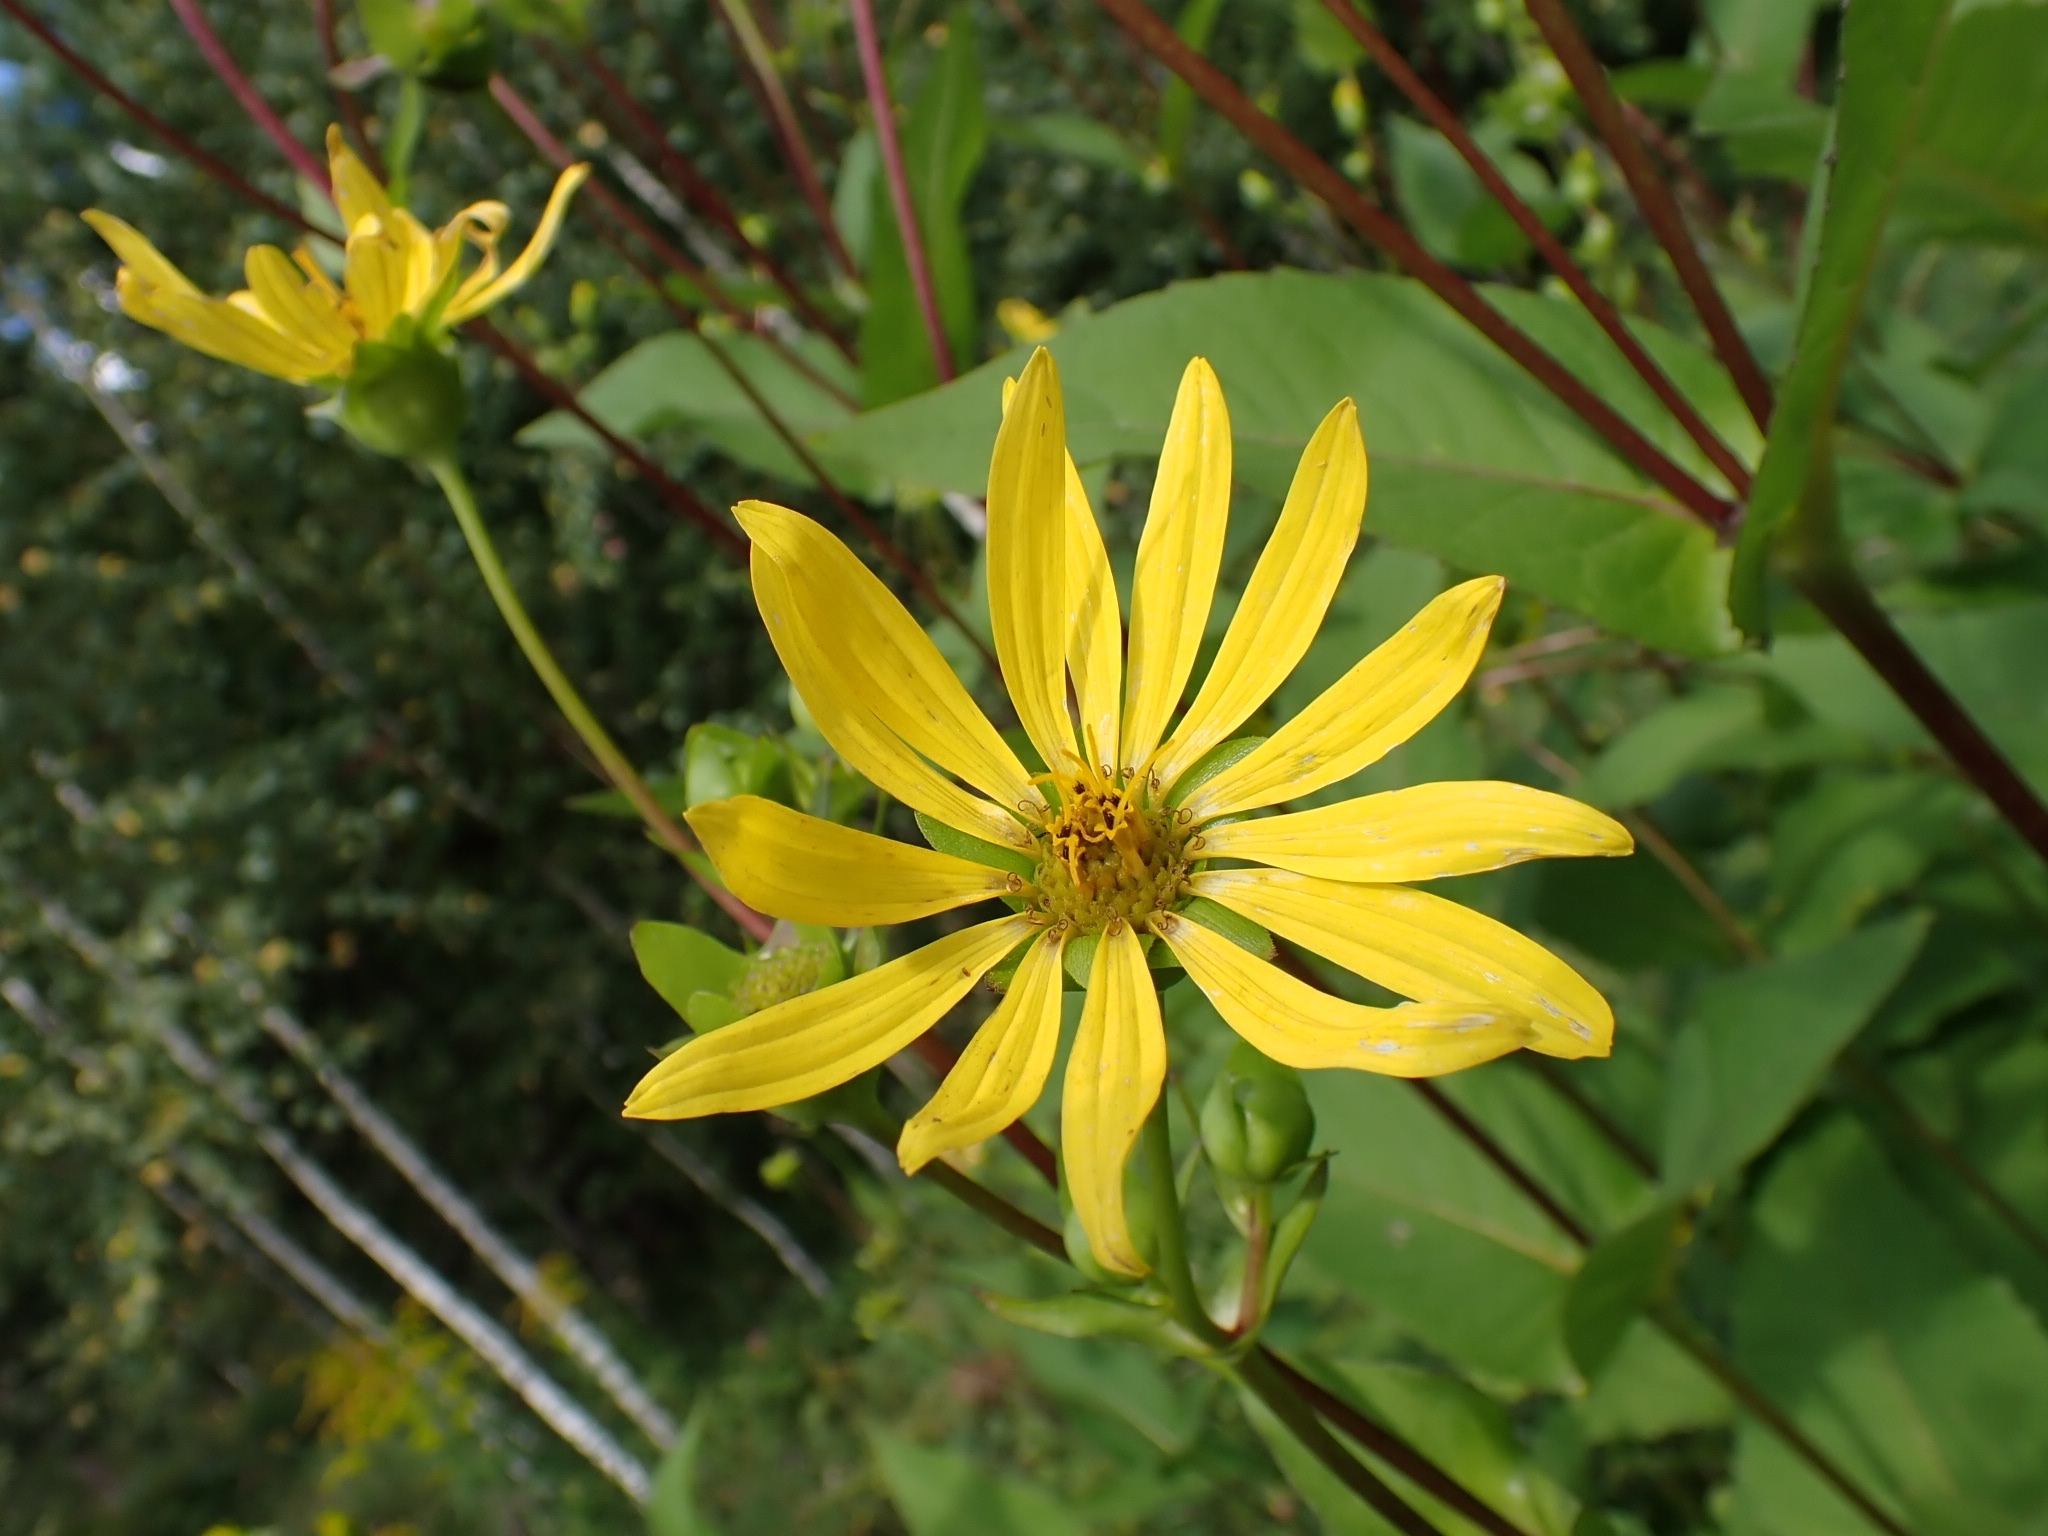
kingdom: Plantae
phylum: Tracheophyta
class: Magnoliopsida
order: Asterales
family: Asteraceae
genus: Helianthus
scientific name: Helianthus tuberosus
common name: Jerusalem artichoke
